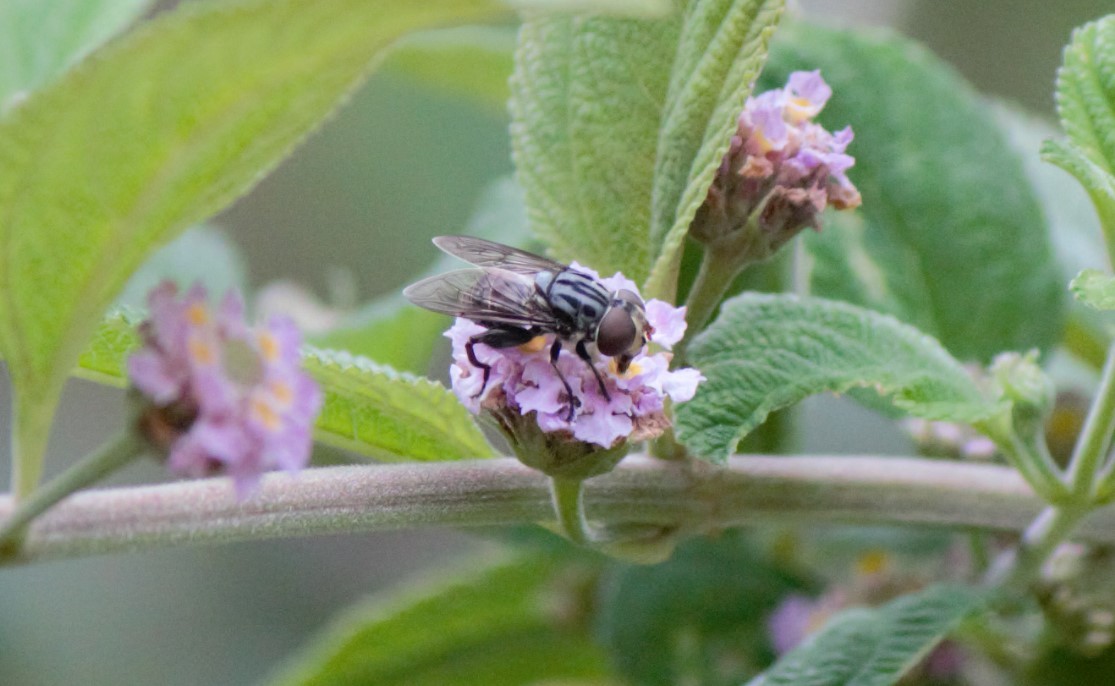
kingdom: Animalia
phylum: Arthropoda
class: Insecta
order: Diptera
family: Syrphidae
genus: Palpada
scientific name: Palpada furcata
